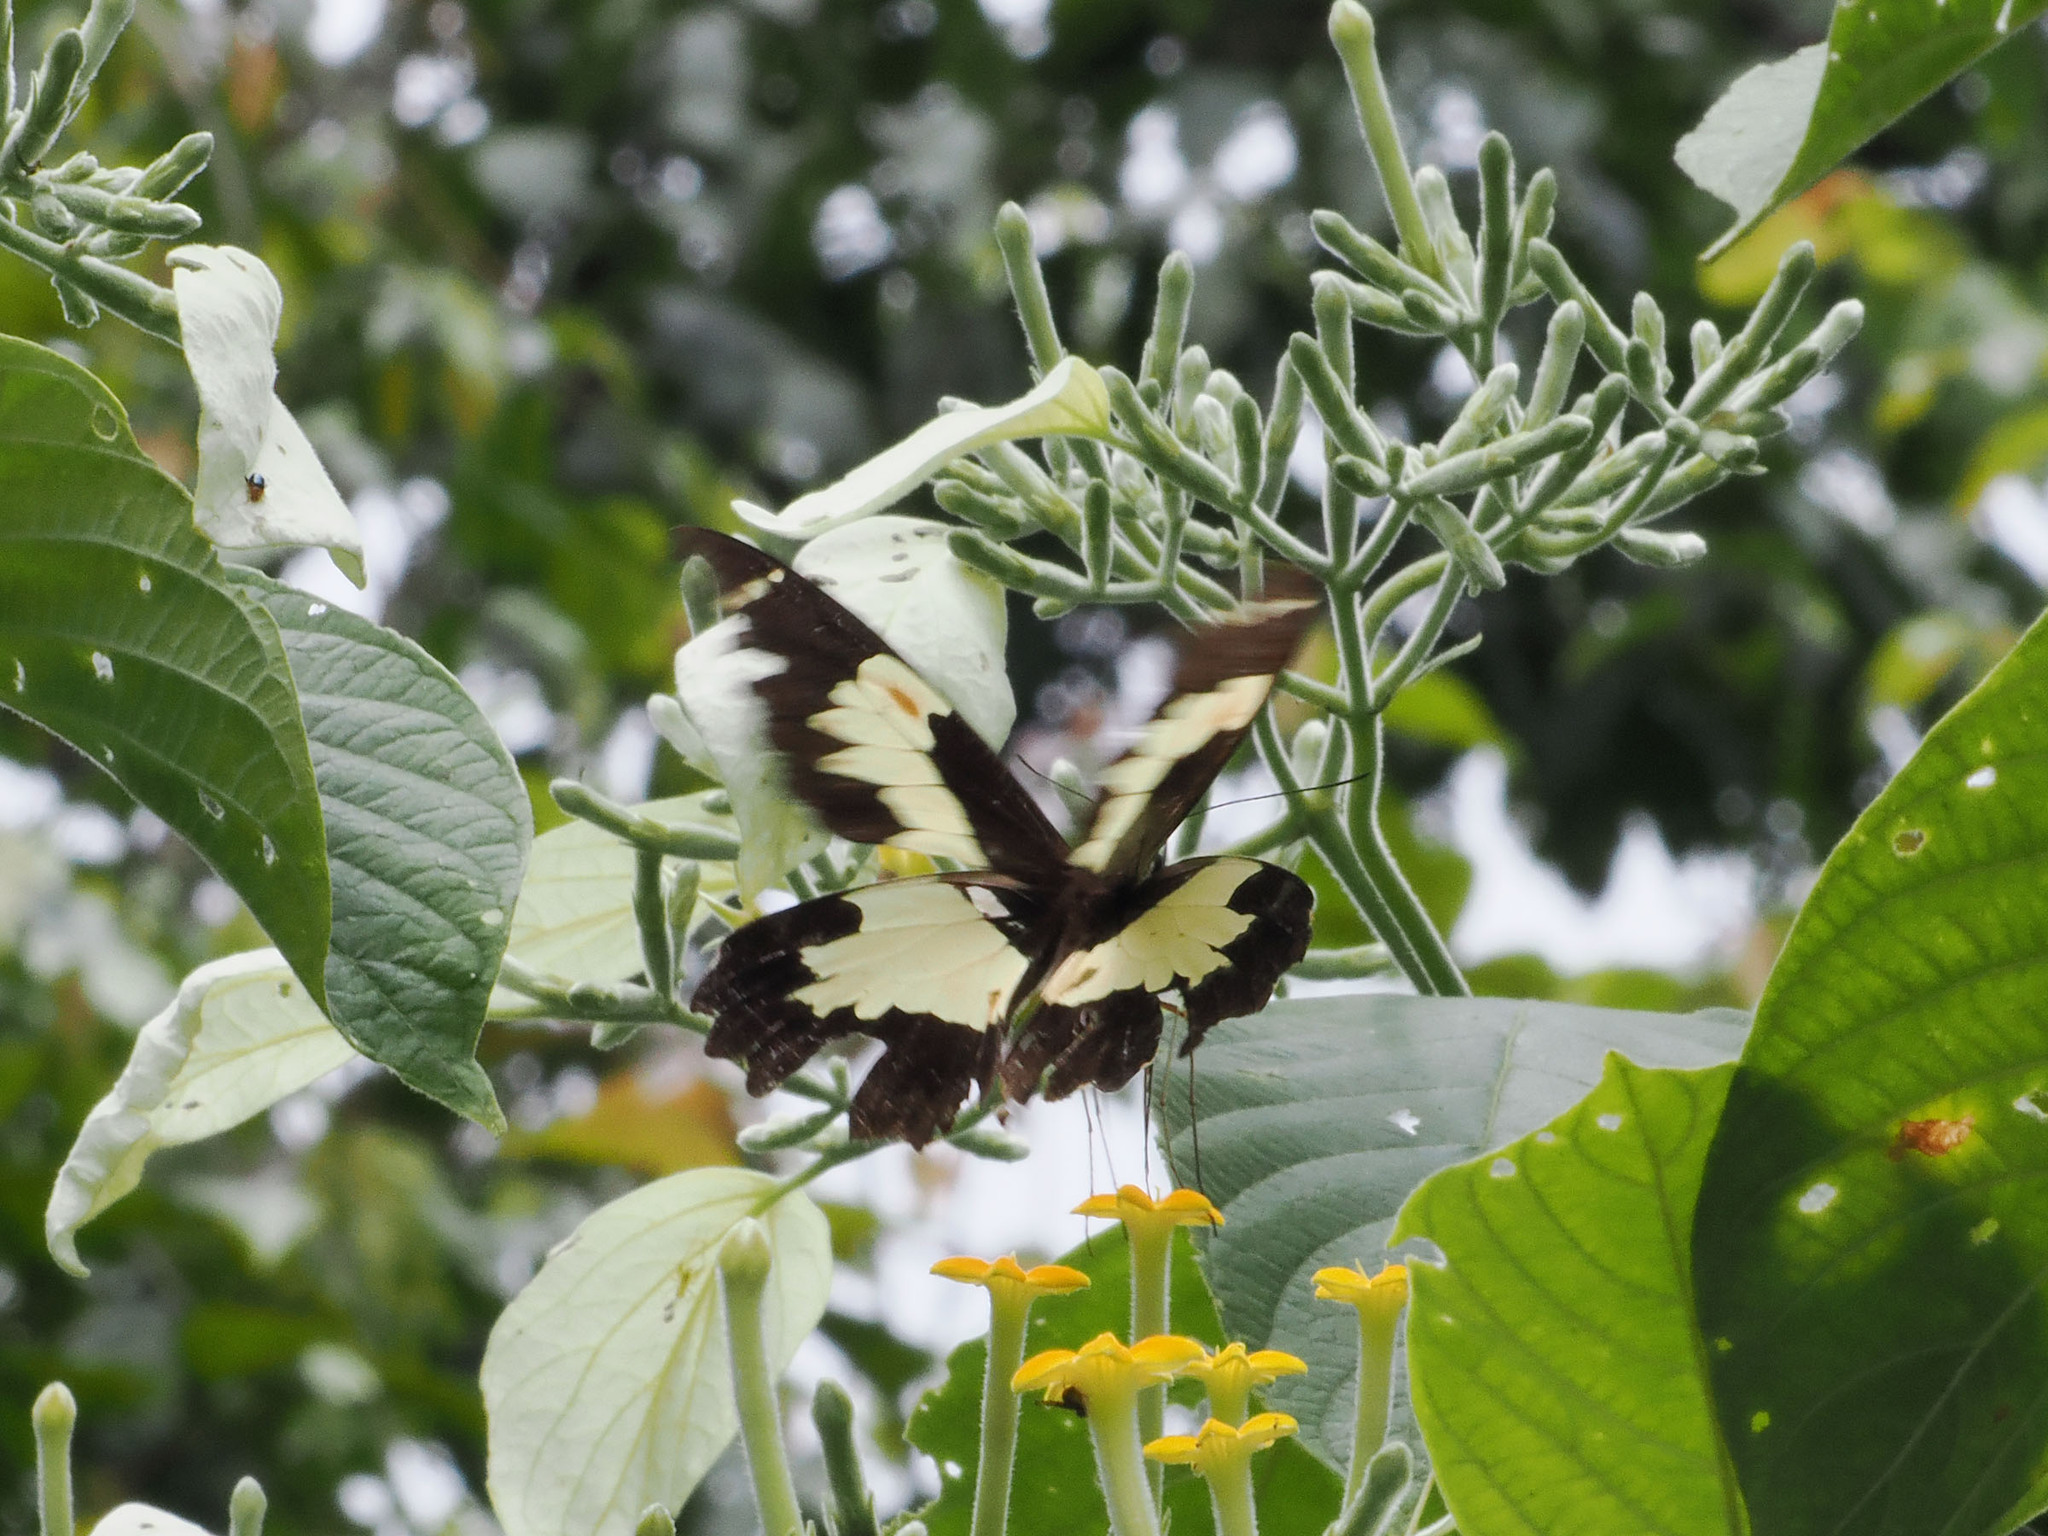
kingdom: Animalia
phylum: Arthropoda
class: Insecta
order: Lepidoptera
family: Papilionidae
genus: Papilio
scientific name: Papilio euchenor
